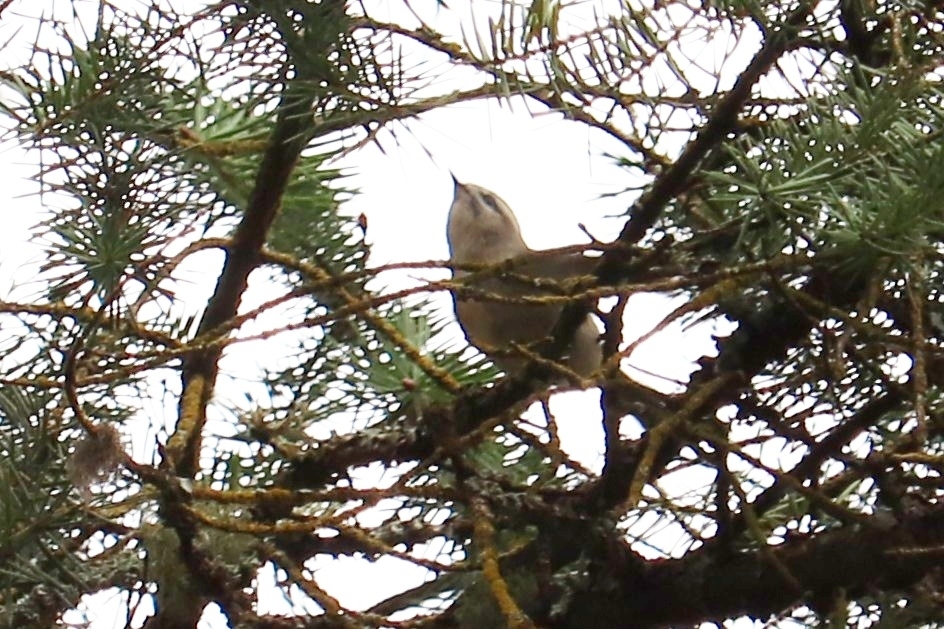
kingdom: Animalia
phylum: Chordata
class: Aves
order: Passeriformes
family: Regulidae
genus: Regulus
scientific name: Regulus satrapa
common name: Golden-crowned kinglet
